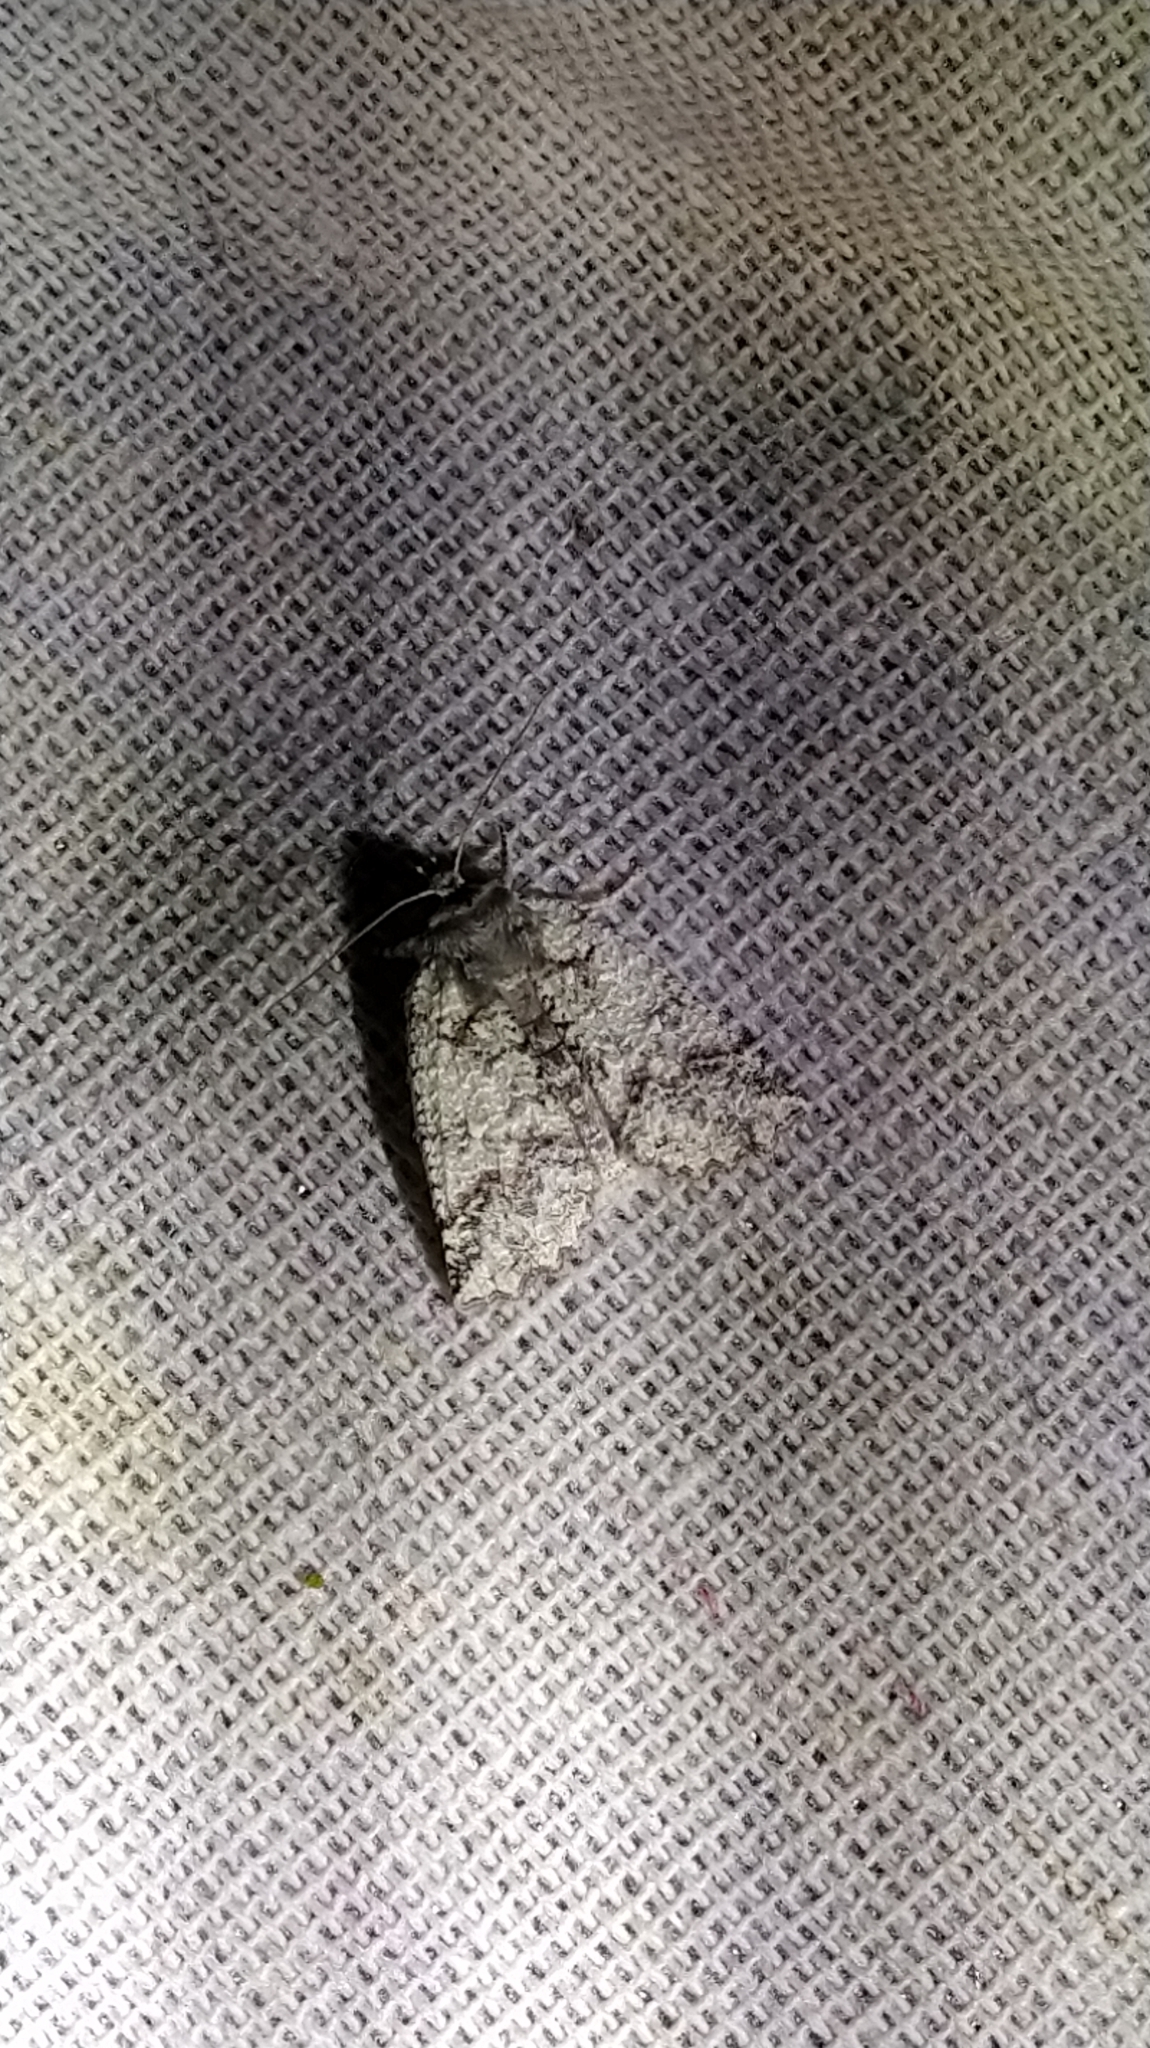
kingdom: Animalia
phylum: Arthropoda
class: Insecta
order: Lepidoptera
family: Geometridae
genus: Declana
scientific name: Declana floccosa
